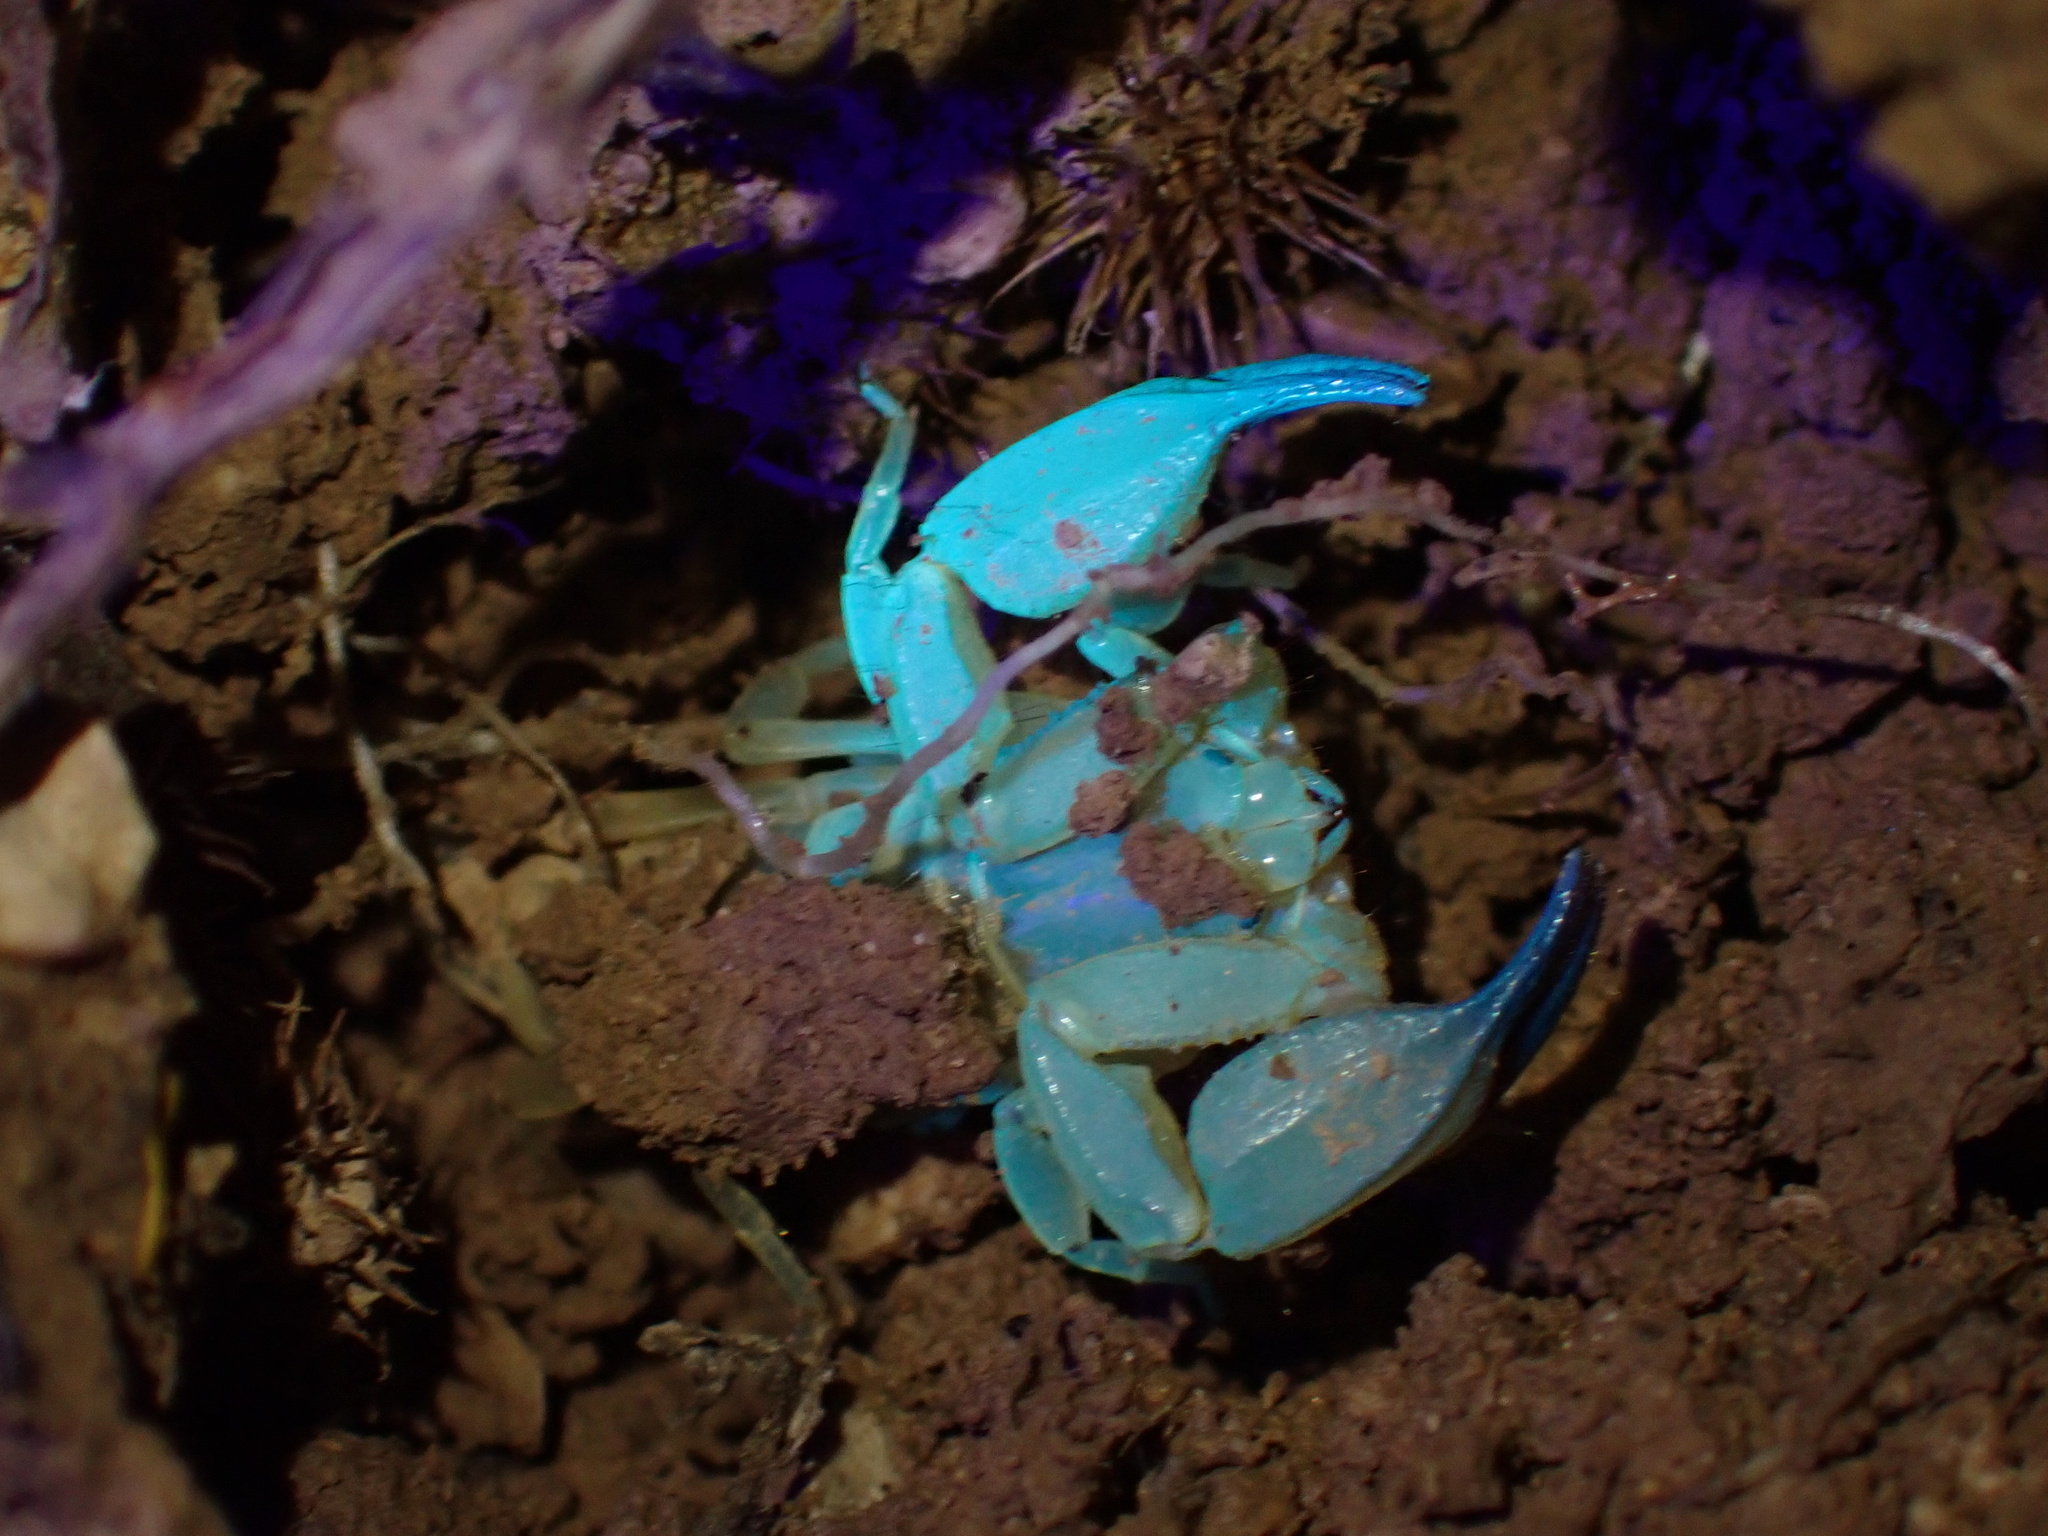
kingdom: Animalia
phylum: Arthropoda
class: Arachnida
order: Scorpiones
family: Hemiscorpiidae
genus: Hemiscorpius
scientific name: Hemiscorpius lepturus
